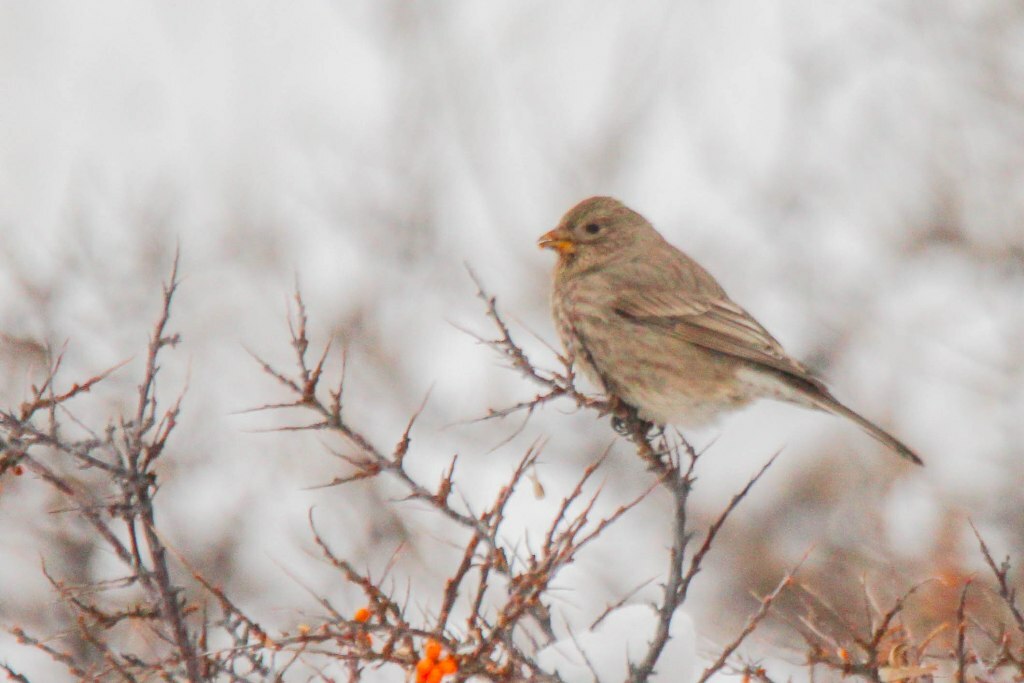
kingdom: Animalia
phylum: Chordata
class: Aves
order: Passeriformes
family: Fringillidae
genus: Carpodacus
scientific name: Carpodacus rubicilla
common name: Great rosefinch
